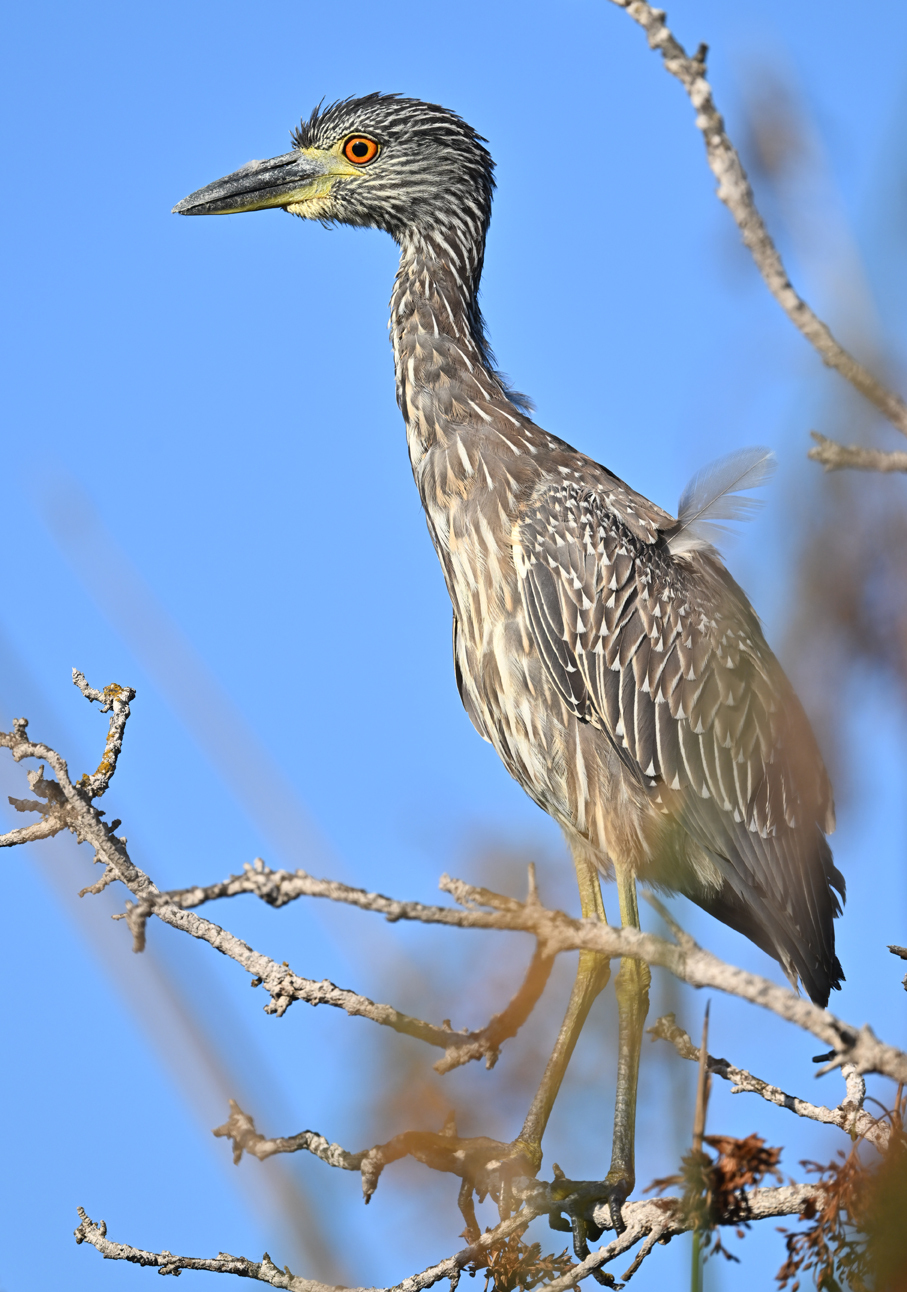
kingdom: Animalia
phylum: Chordata
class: Aves
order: Pelecaniformes
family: Ardeidae
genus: Nyctanassa
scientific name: Nyctanassa violacea
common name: Yellow-crowned night heron
